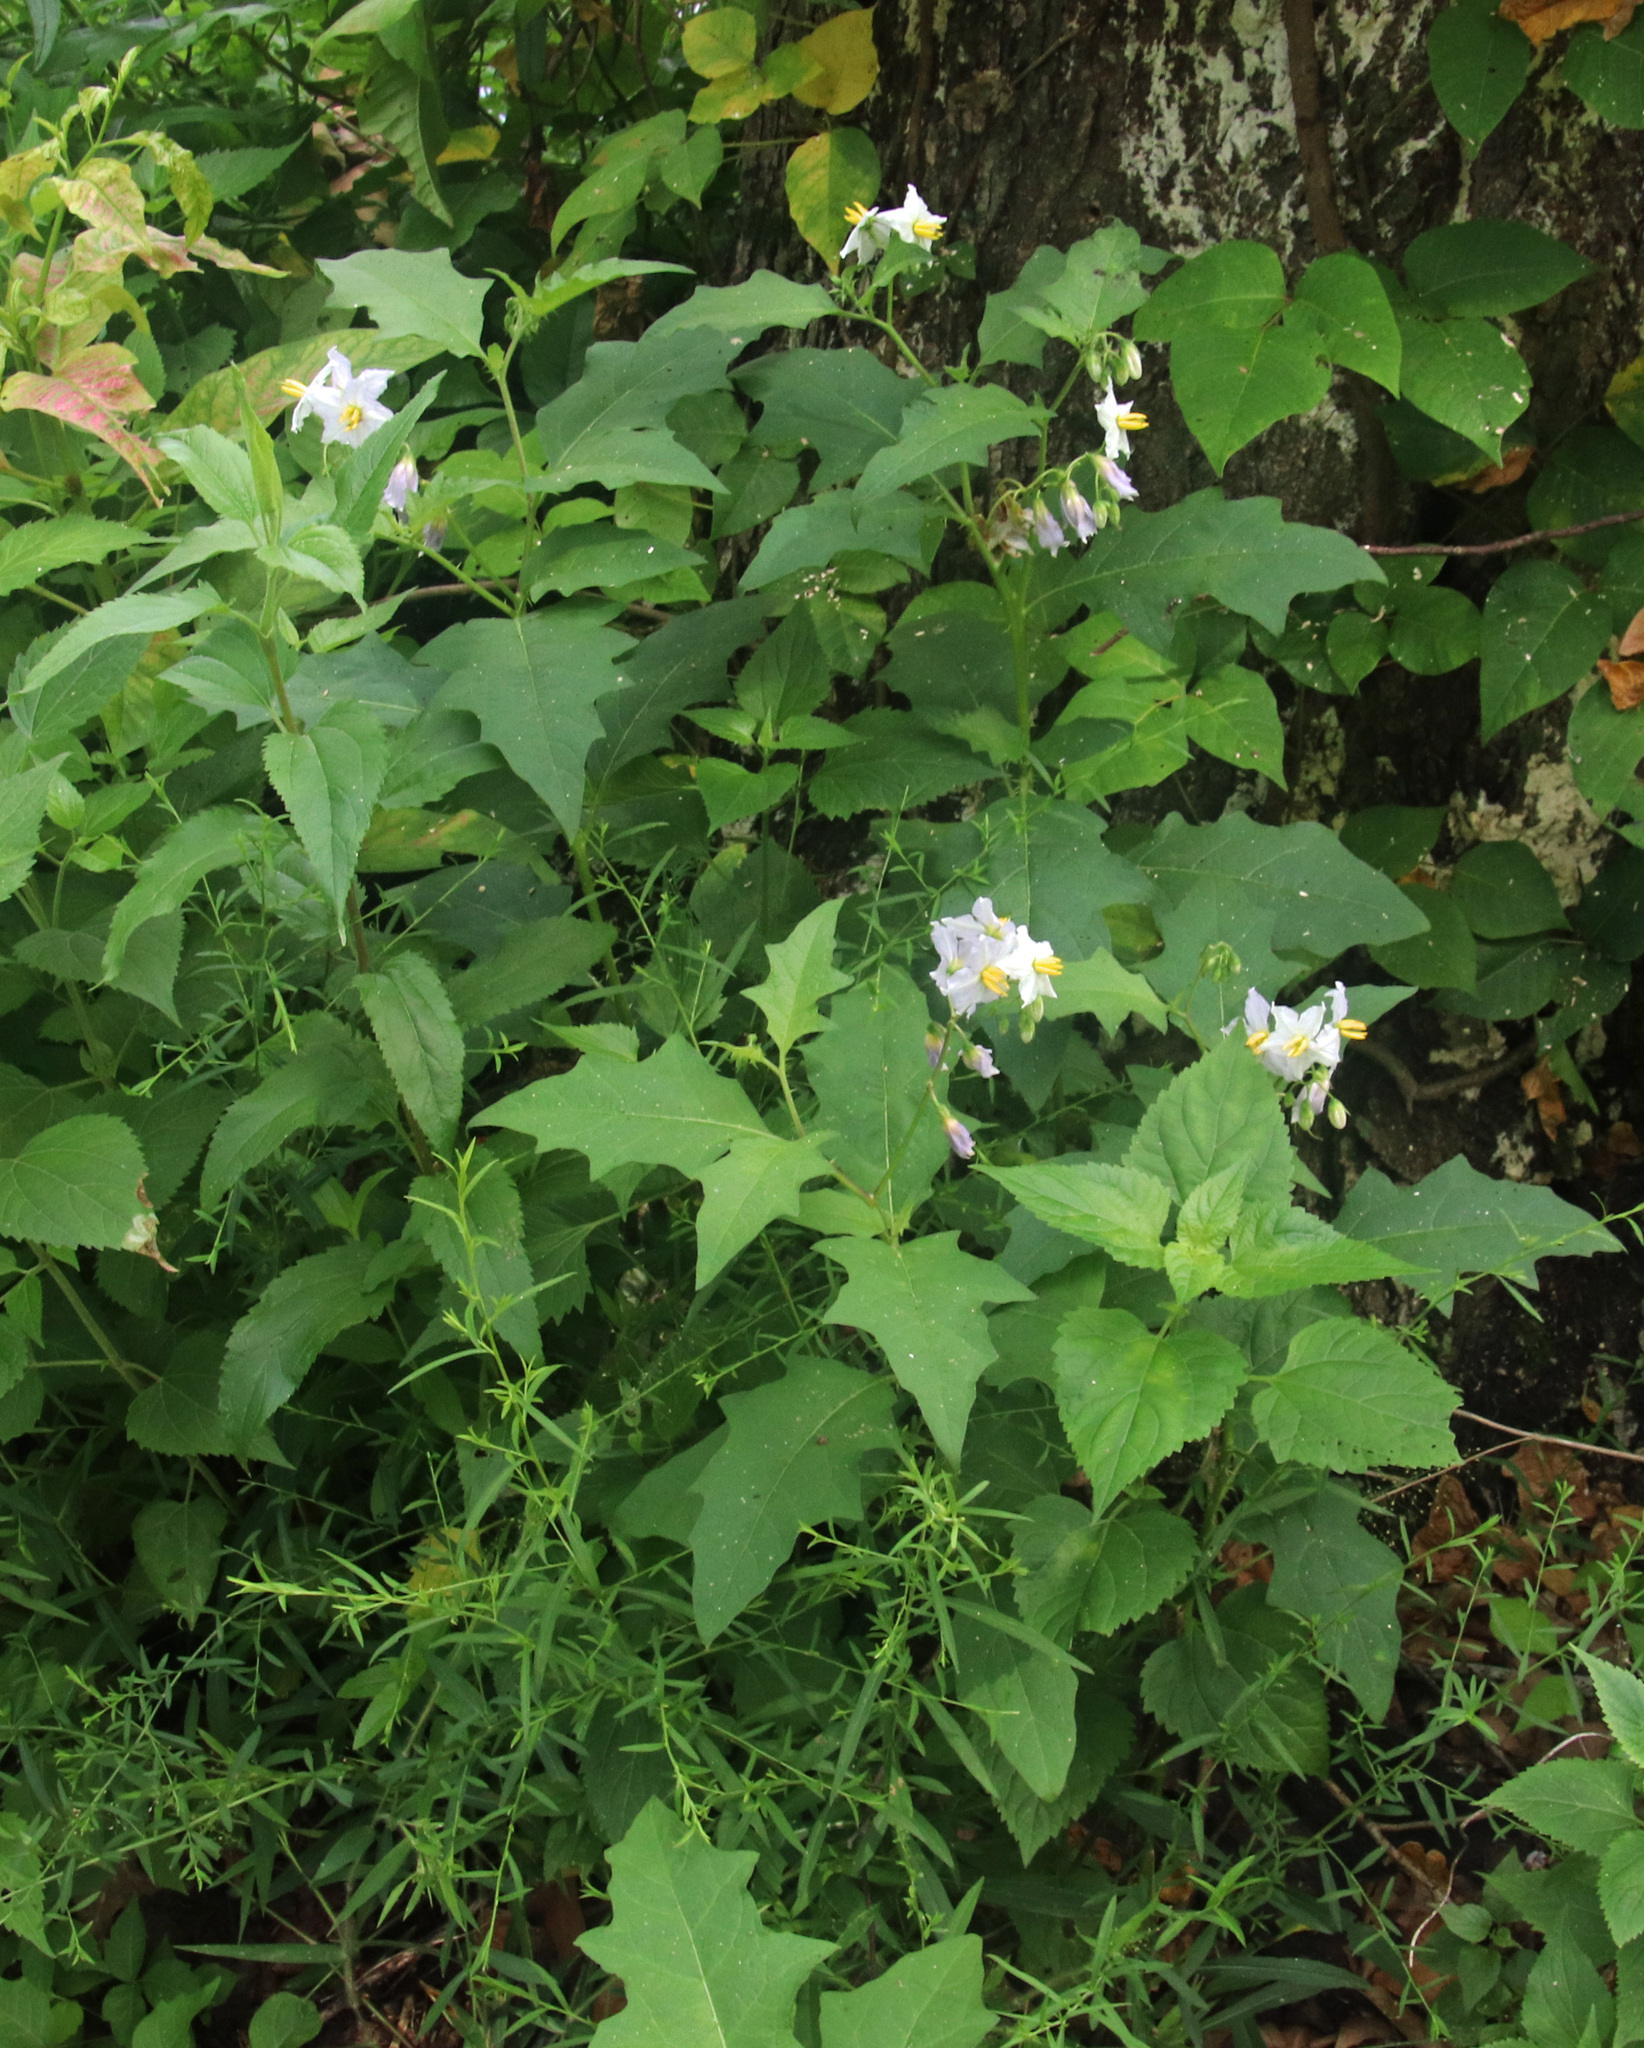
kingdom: Plantae
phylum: Tracheophyta
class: Magnoliopsida
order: Solanales
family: Solanaceae
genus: Solanum
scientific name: Solanum carolinense
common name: Horse-nettle
